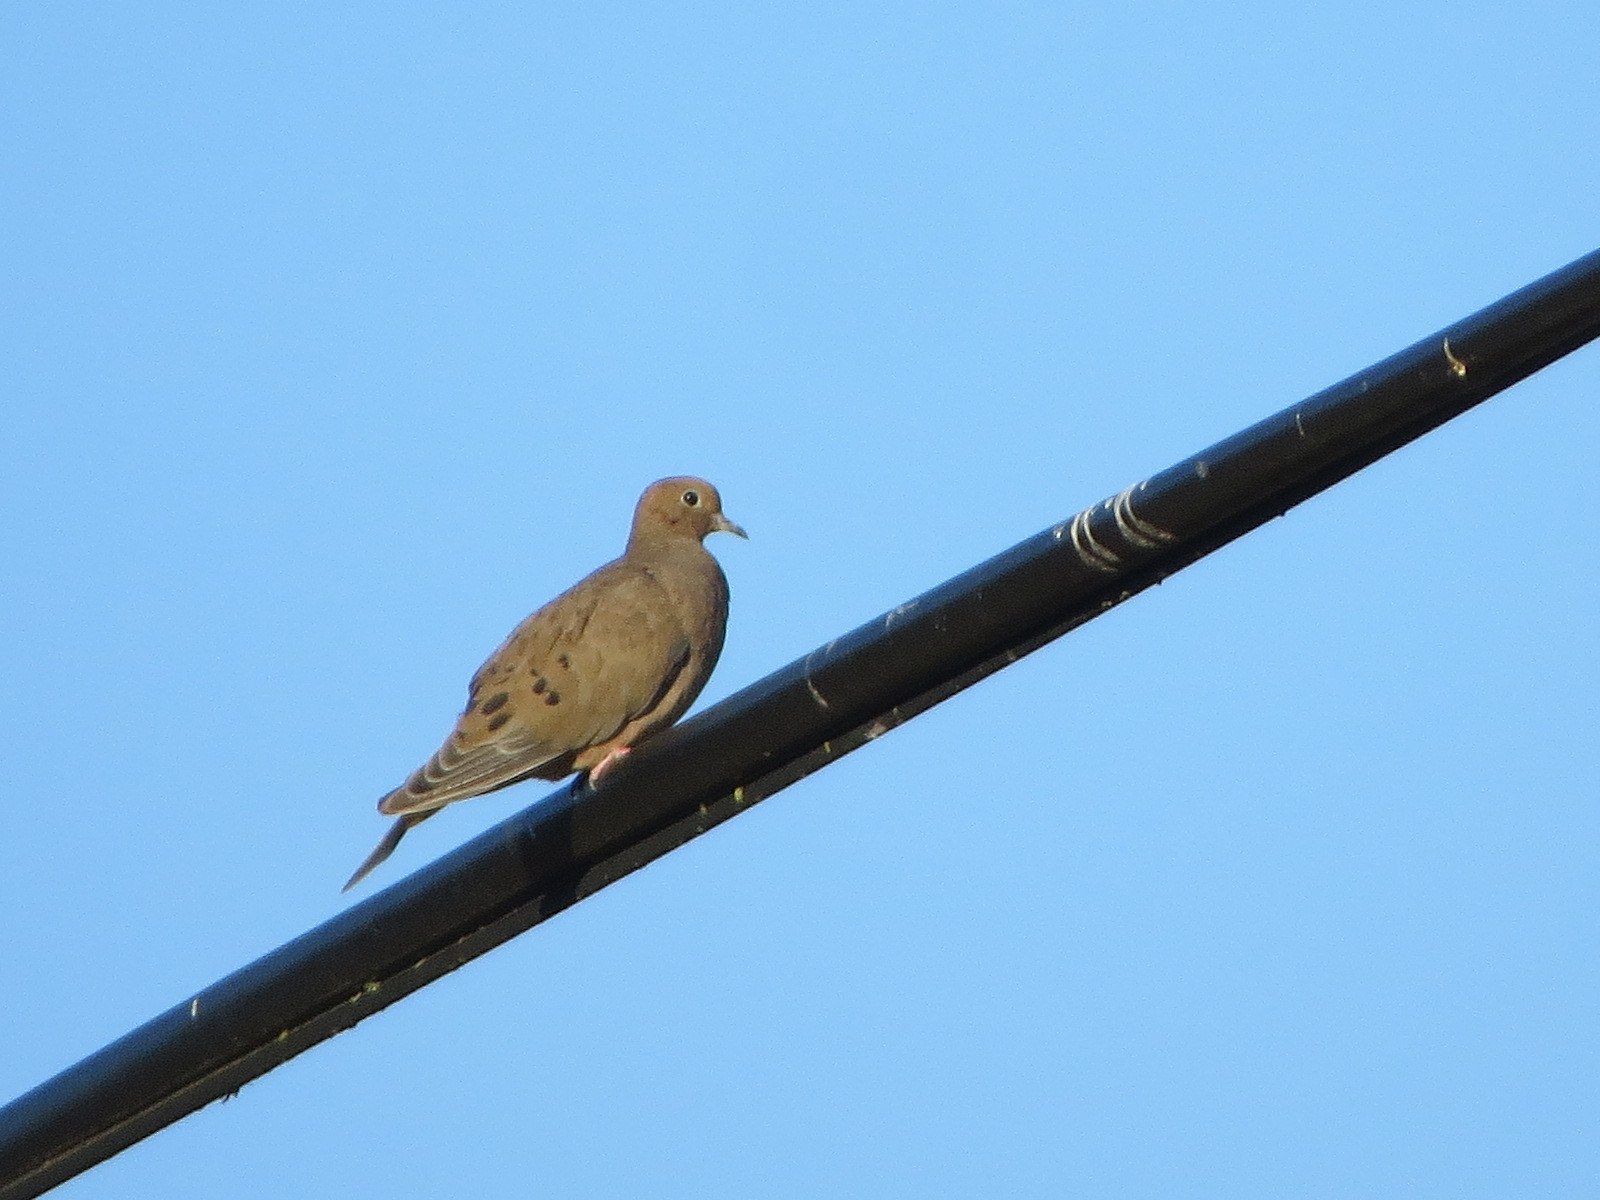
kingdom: Animalia
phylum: Chordata
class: Aves
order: Columbiformes
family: Columbidae
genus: Zenaida
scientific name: Zenaida macroura
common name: Mourning dove
